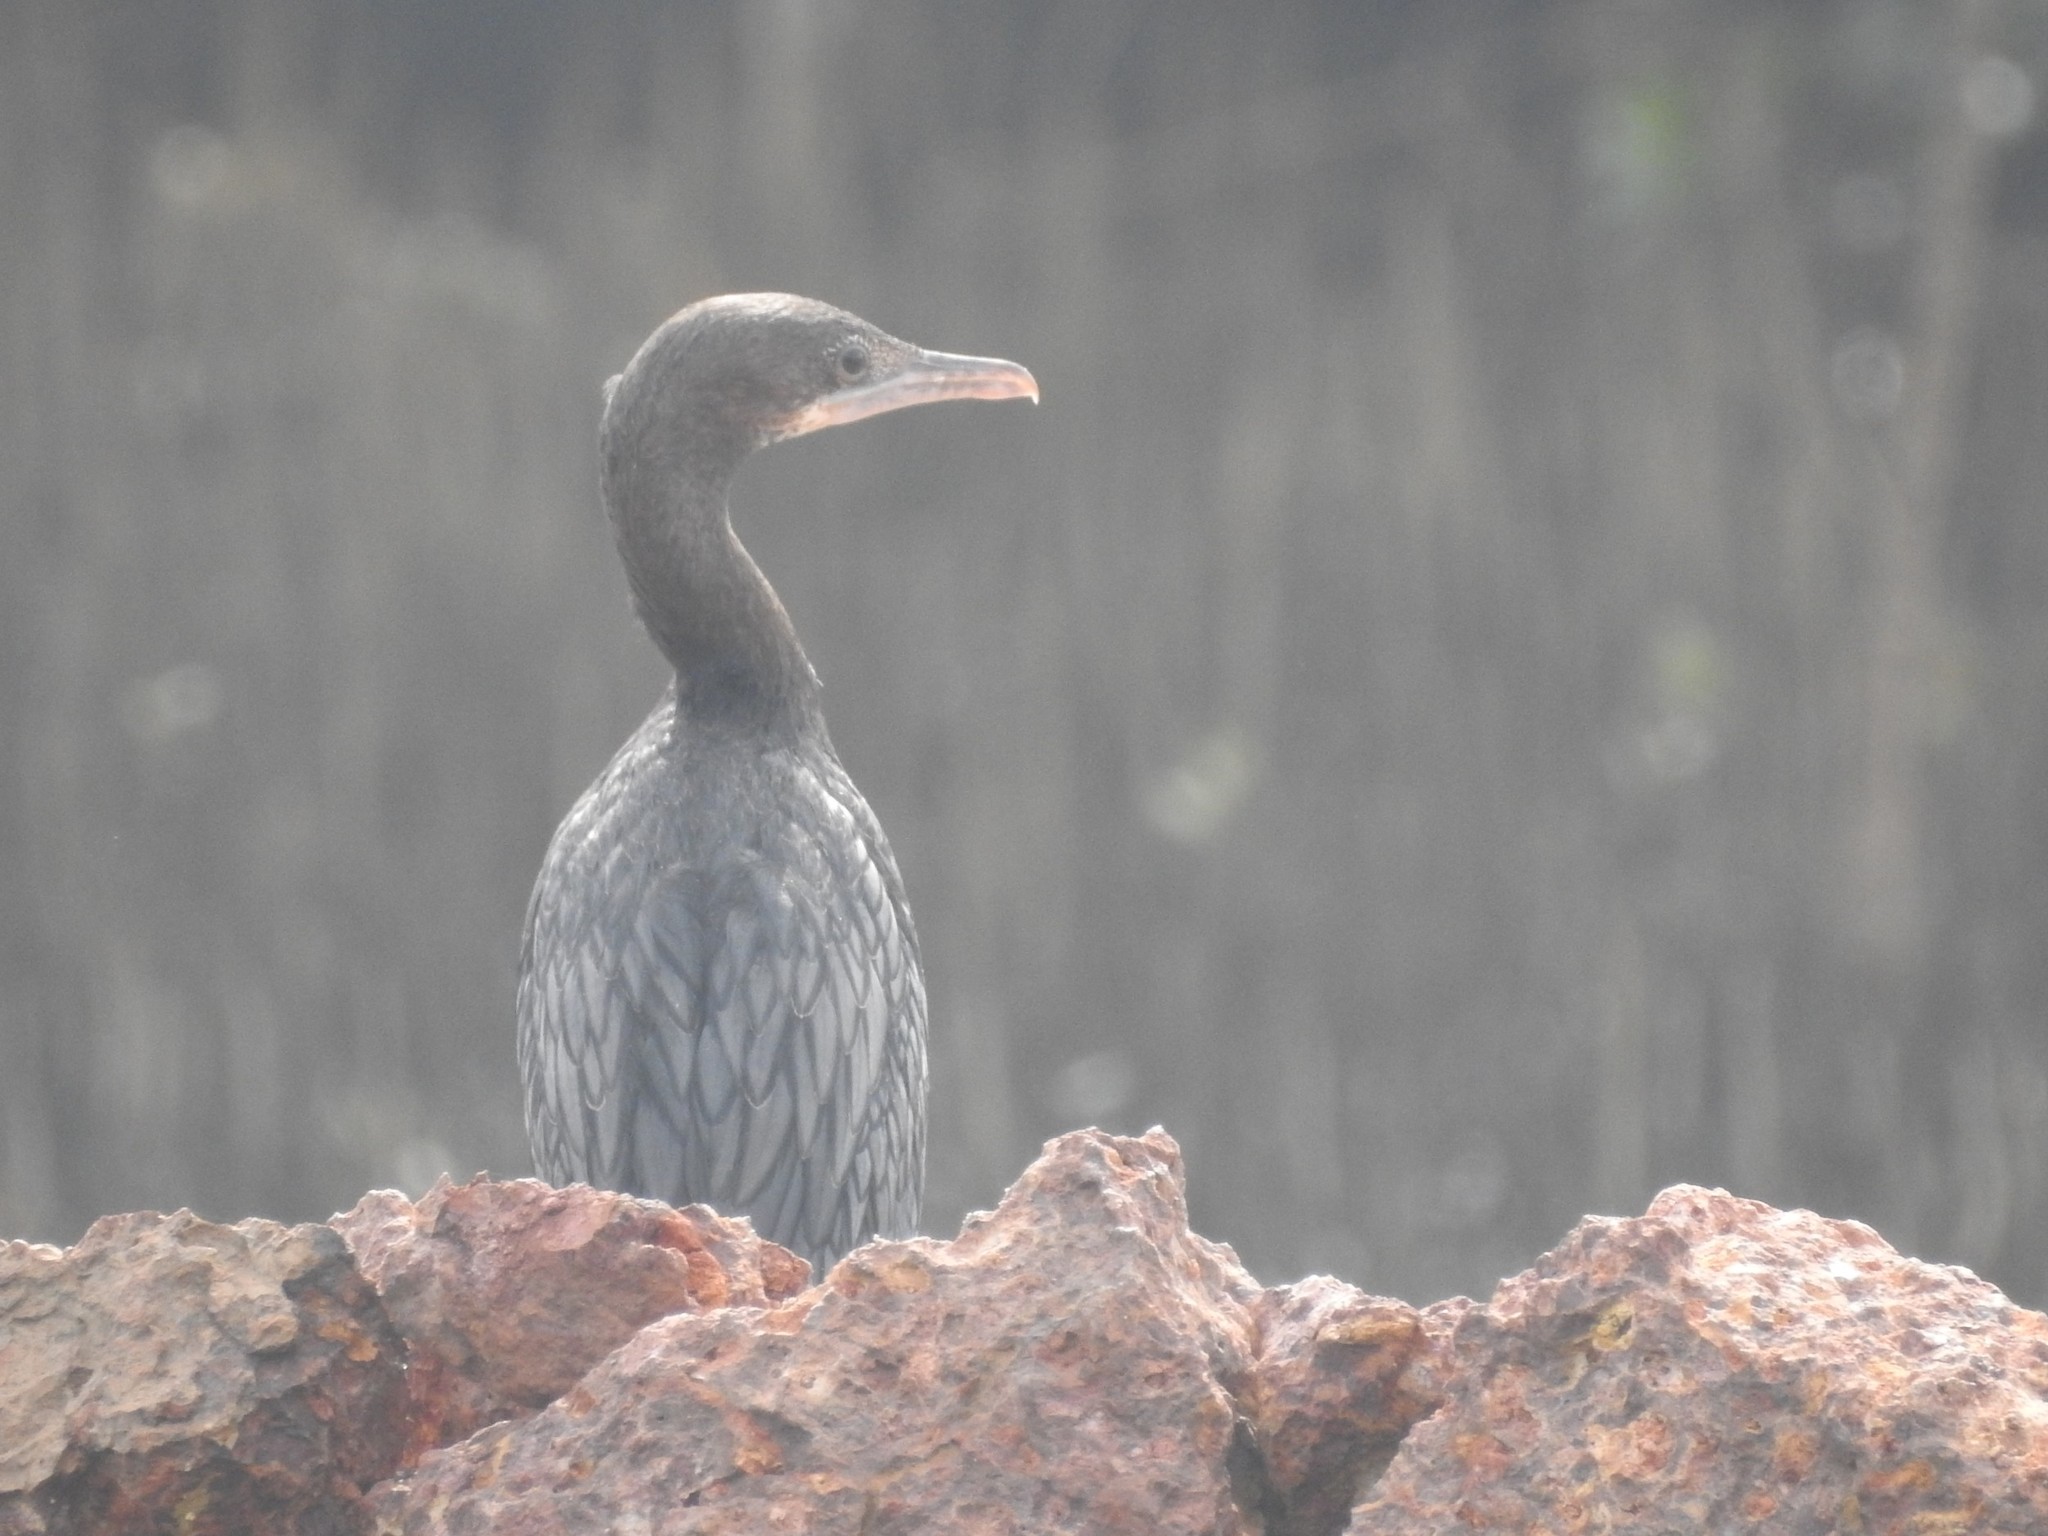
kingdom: Animalia
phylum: Chordata
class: Aves
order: Suliformes
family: Phalacrocoracidae
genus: Microcarbo
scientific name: Microcarbo niger
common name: Little cormorant
